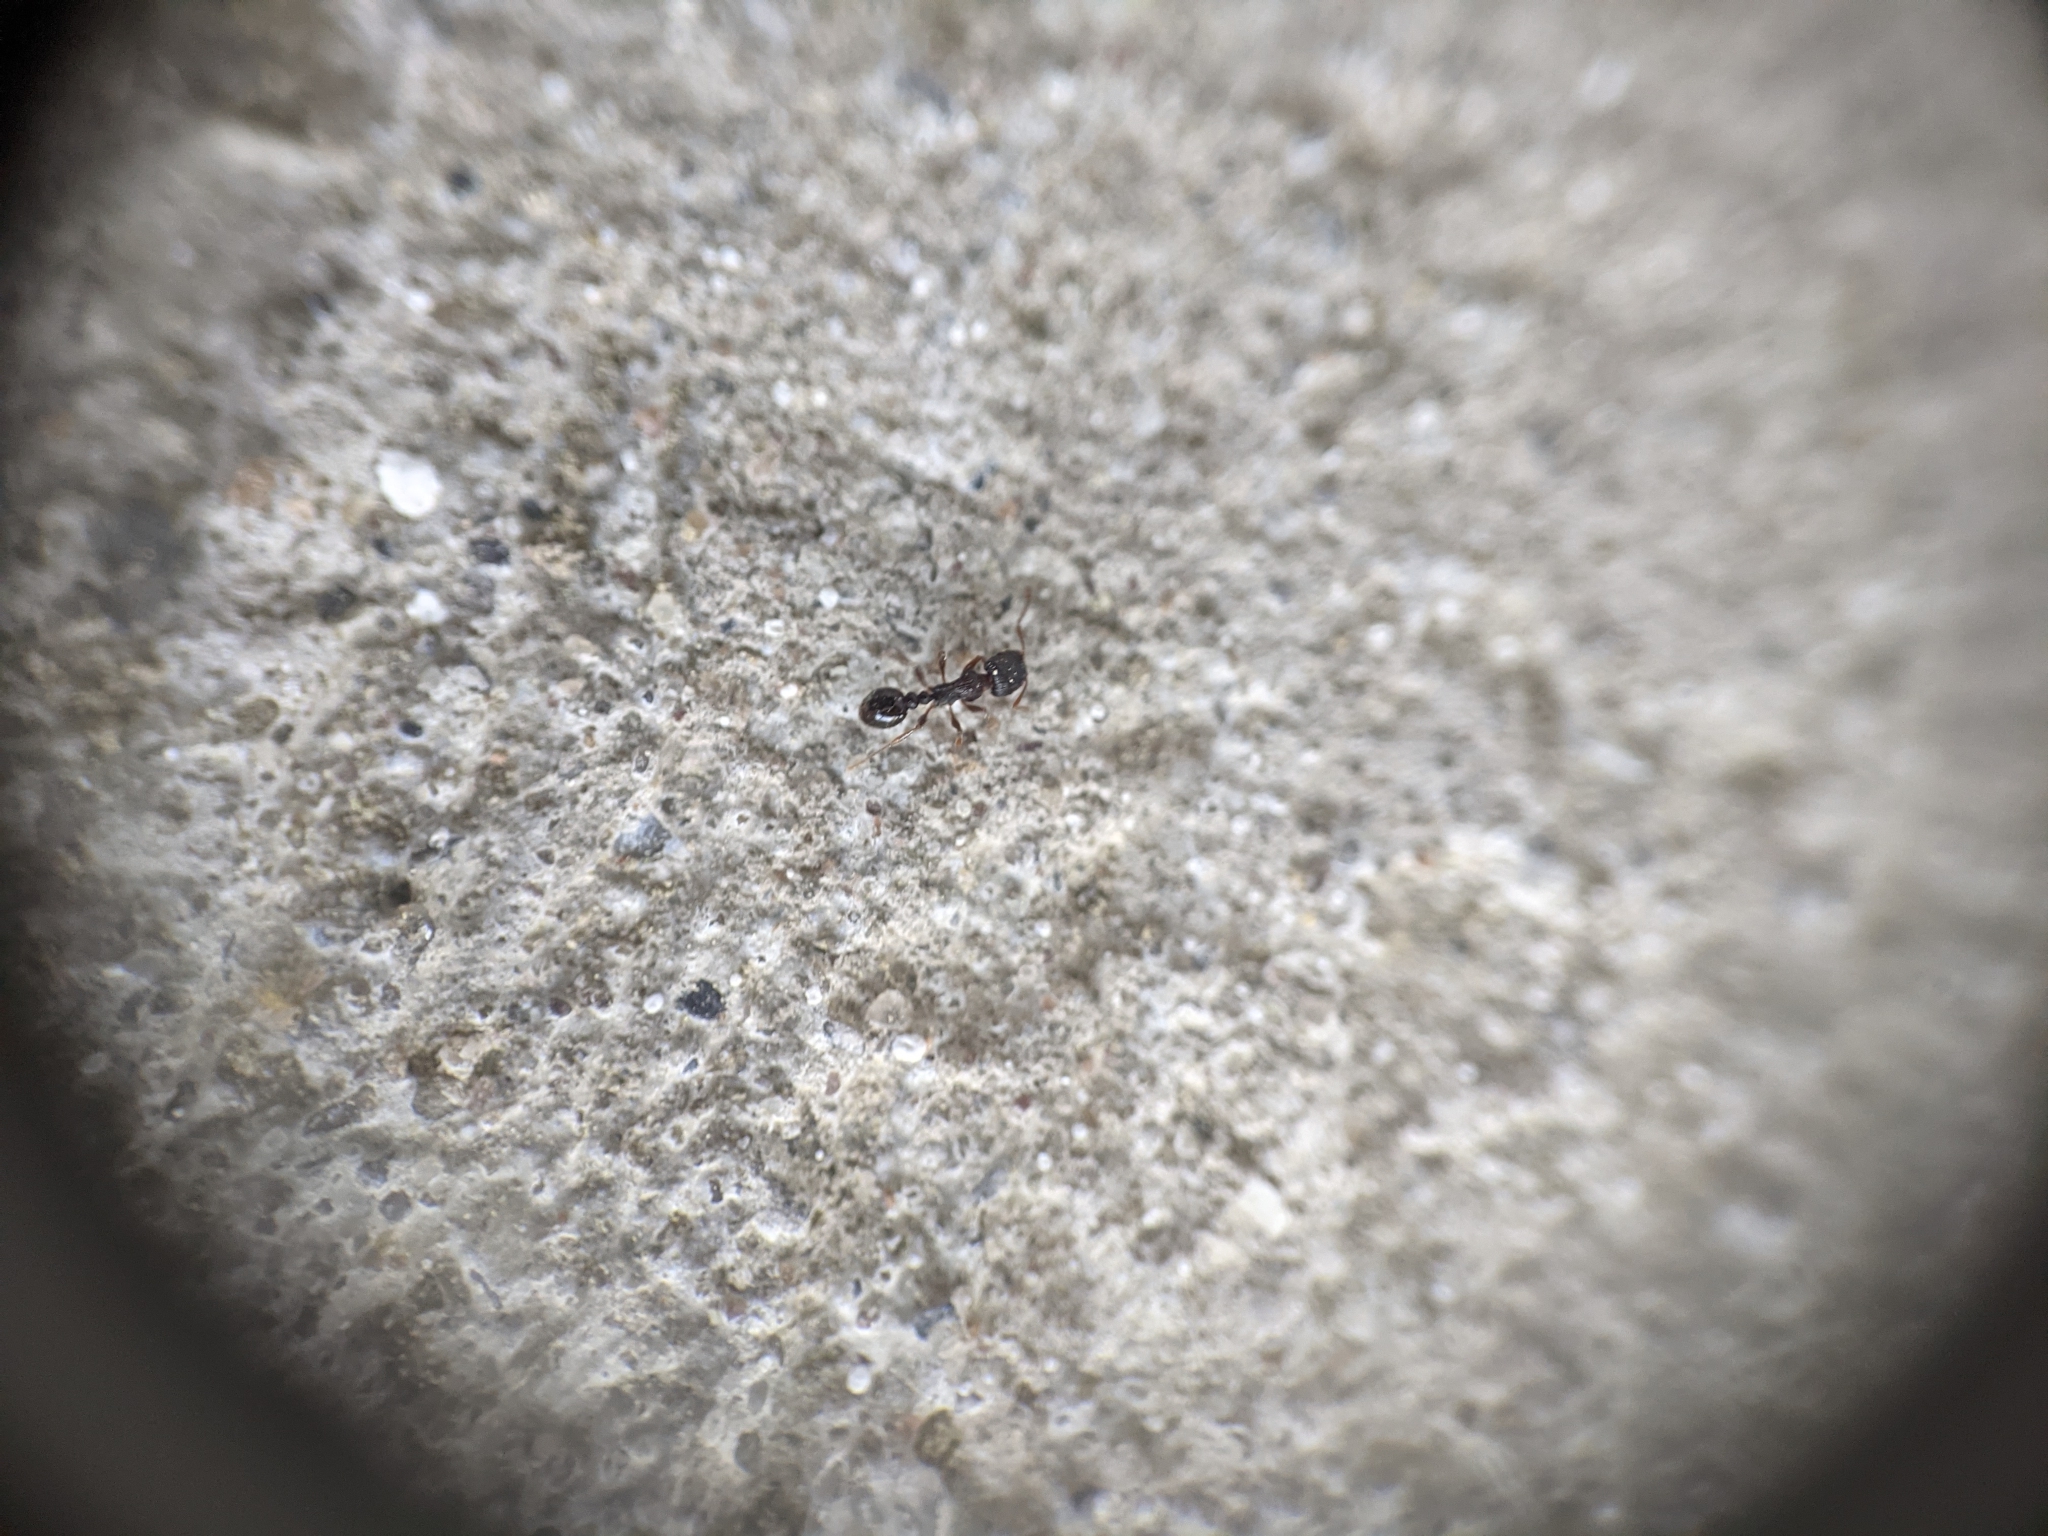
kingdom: Animalia
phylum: Arthropoda
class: Insecta
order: Hymenoptera
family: Formicidae
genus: Tetramorium
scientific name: Tetramorium immigrans
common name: Pavement ant
